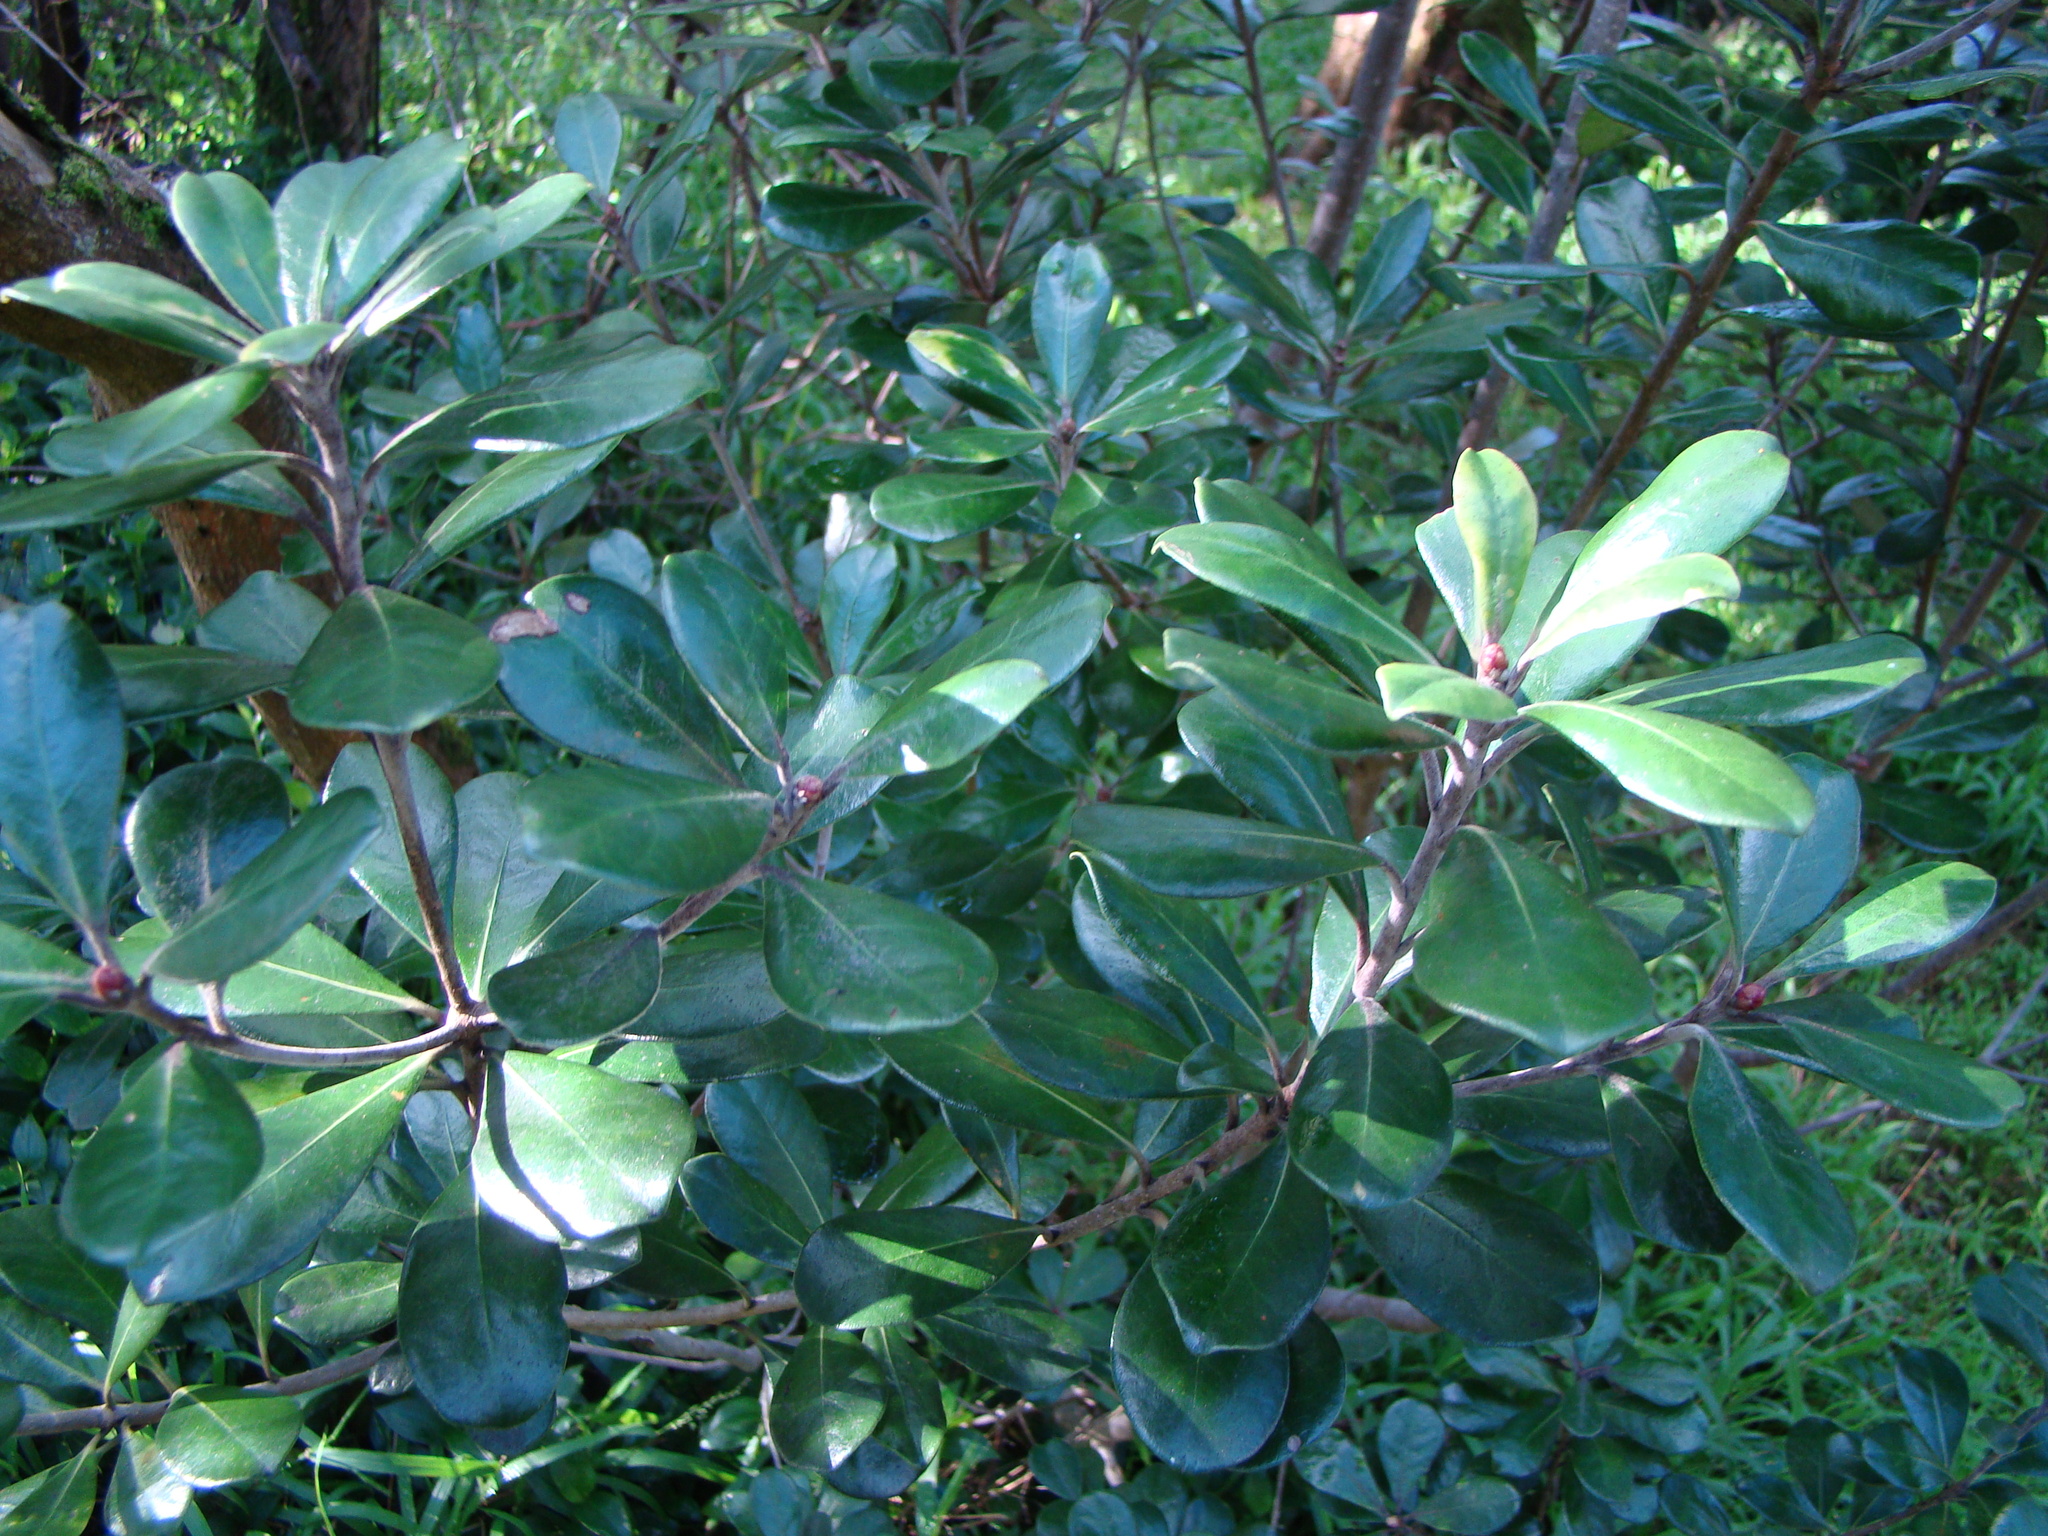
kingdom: Plantae
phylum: Tracheophyta
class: Magnoliopsida
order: Apiales
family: Pittosporaceae
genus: Pittosporum
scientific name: Pittosporum crassifolium
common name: Karo
